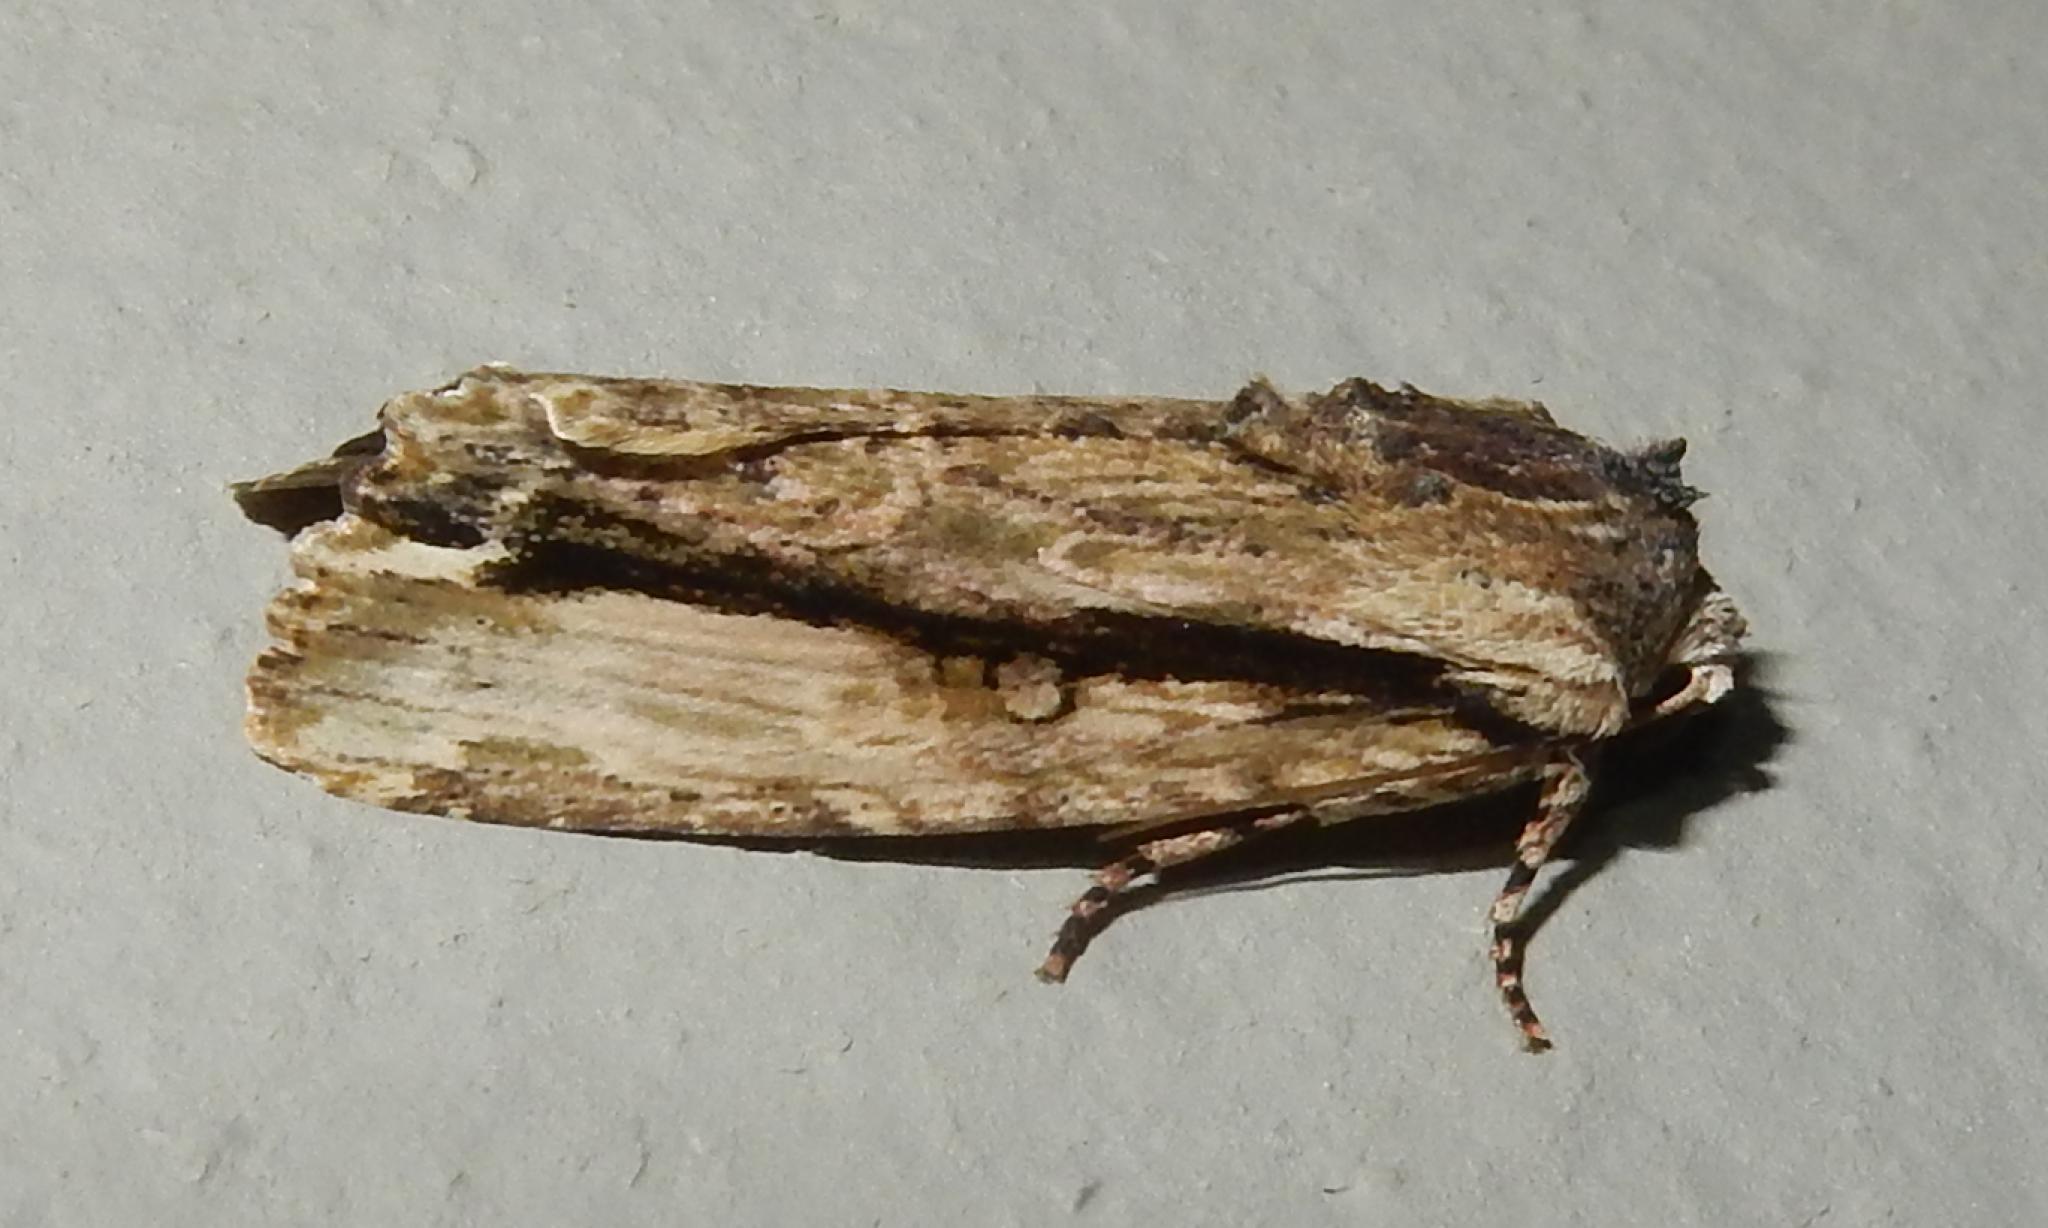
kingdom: Animalia
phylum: Arthropoda
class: Insecta
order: Lepidoptera
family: Noctuidae
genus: Magusa
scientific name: Magusa versicolora
